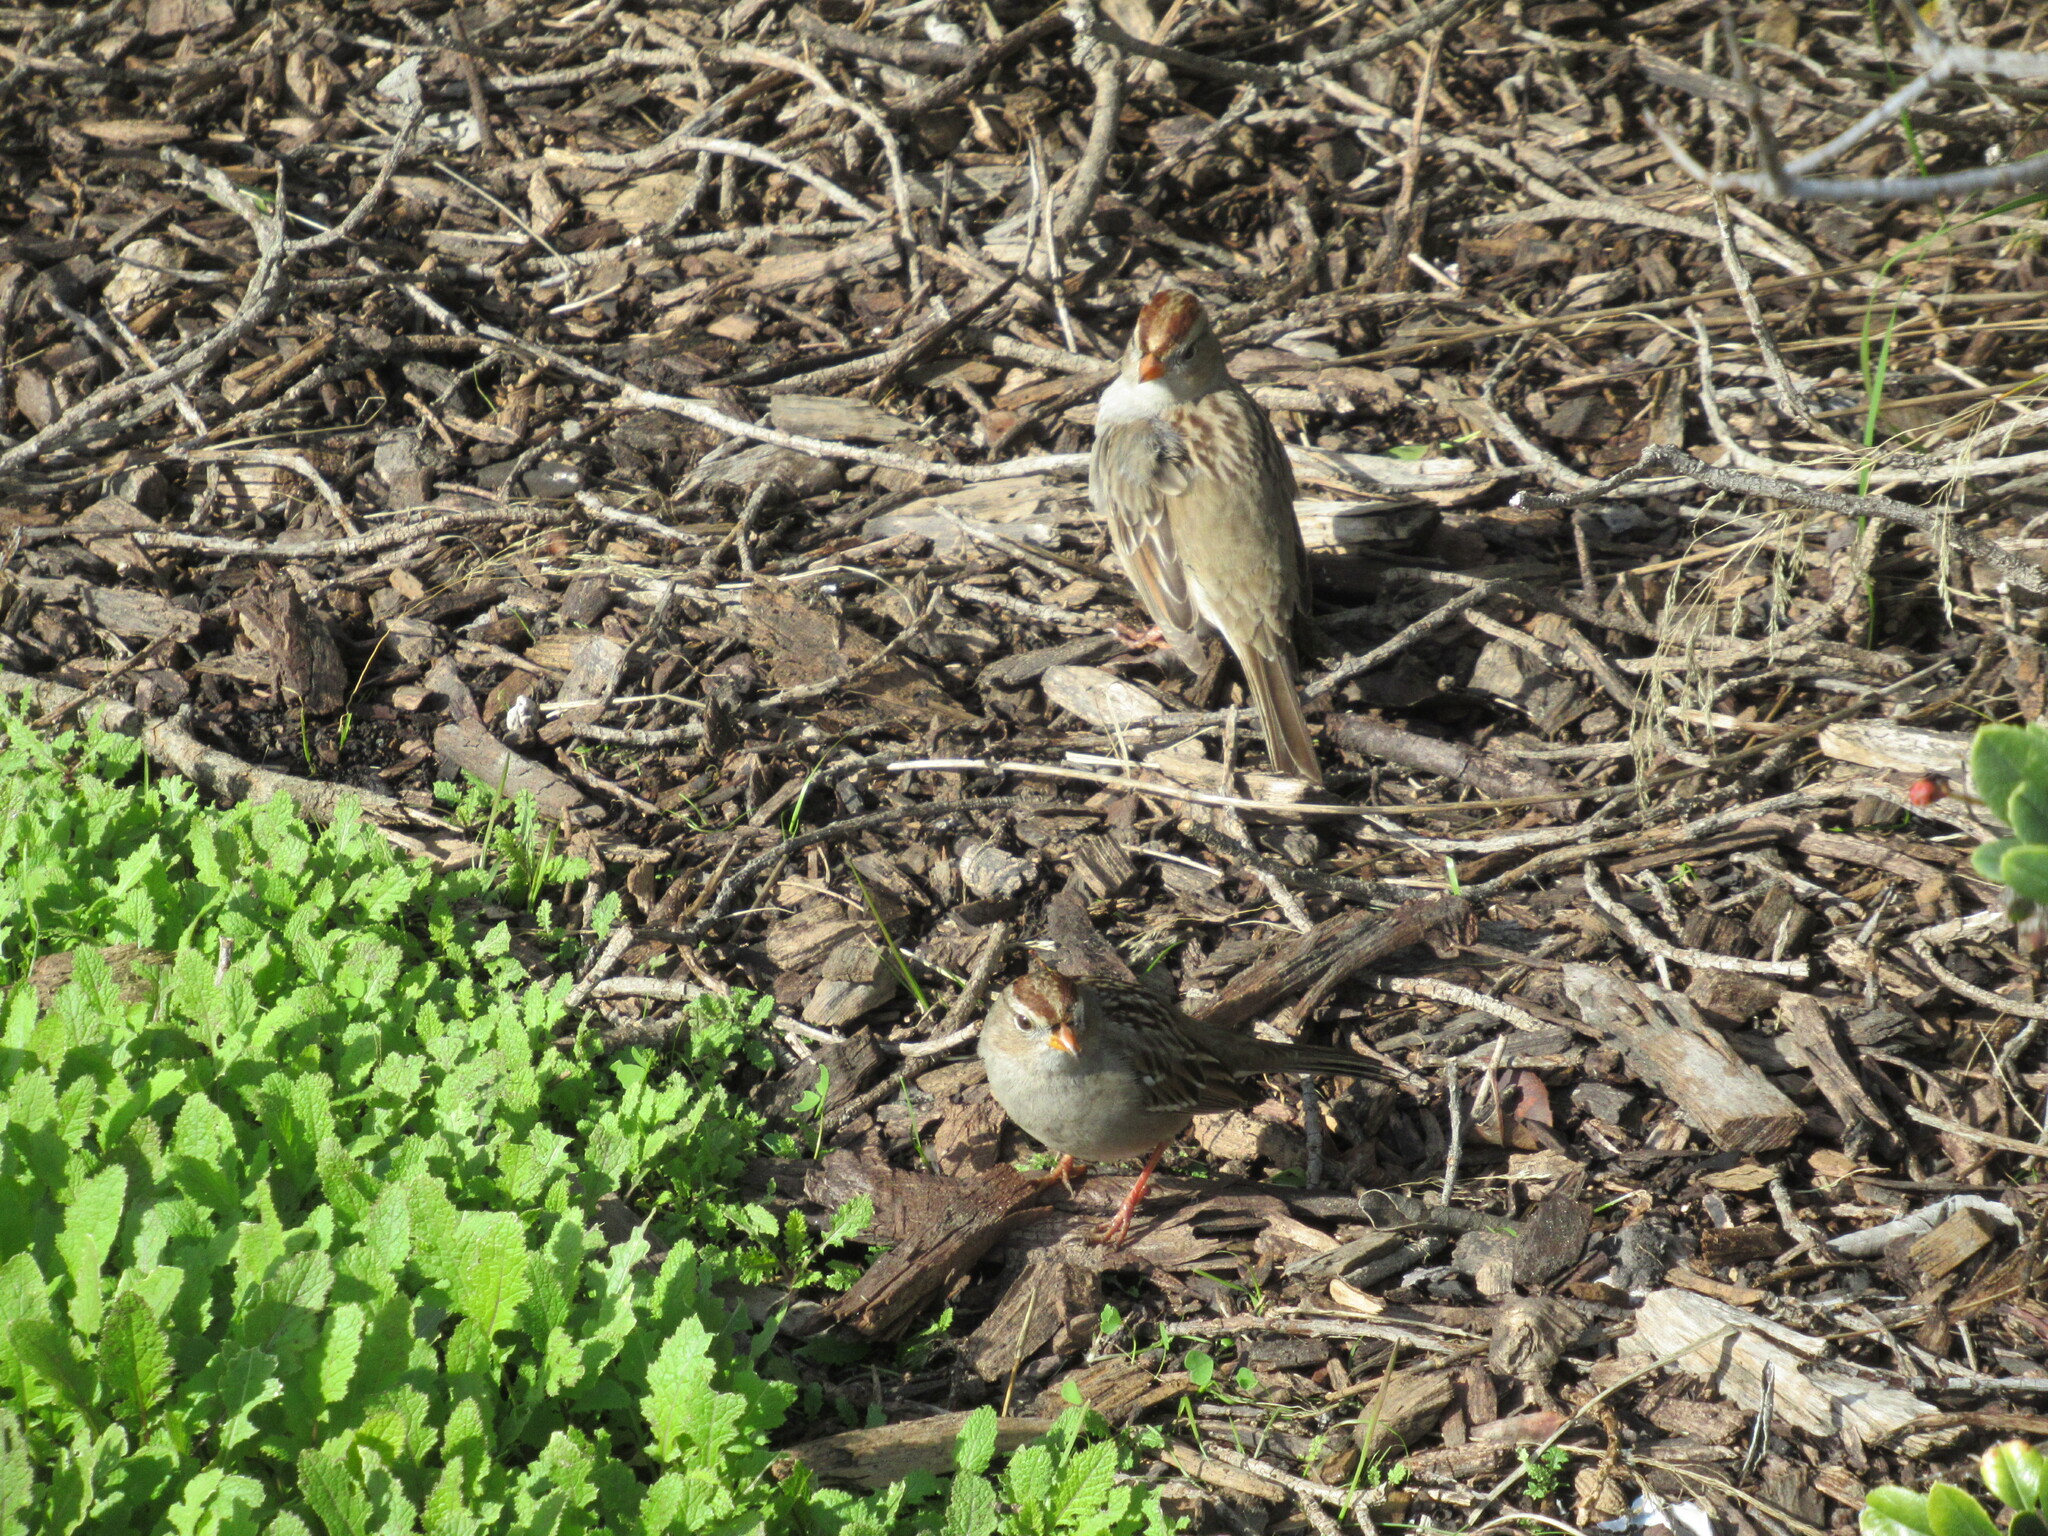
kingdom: Animalia
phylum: Chordata
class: Aves
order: Passeriformes
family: Passerellidae
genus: Zonotrichia
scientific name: Zonotrichia leucophrys
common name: White-crowned sparrow
